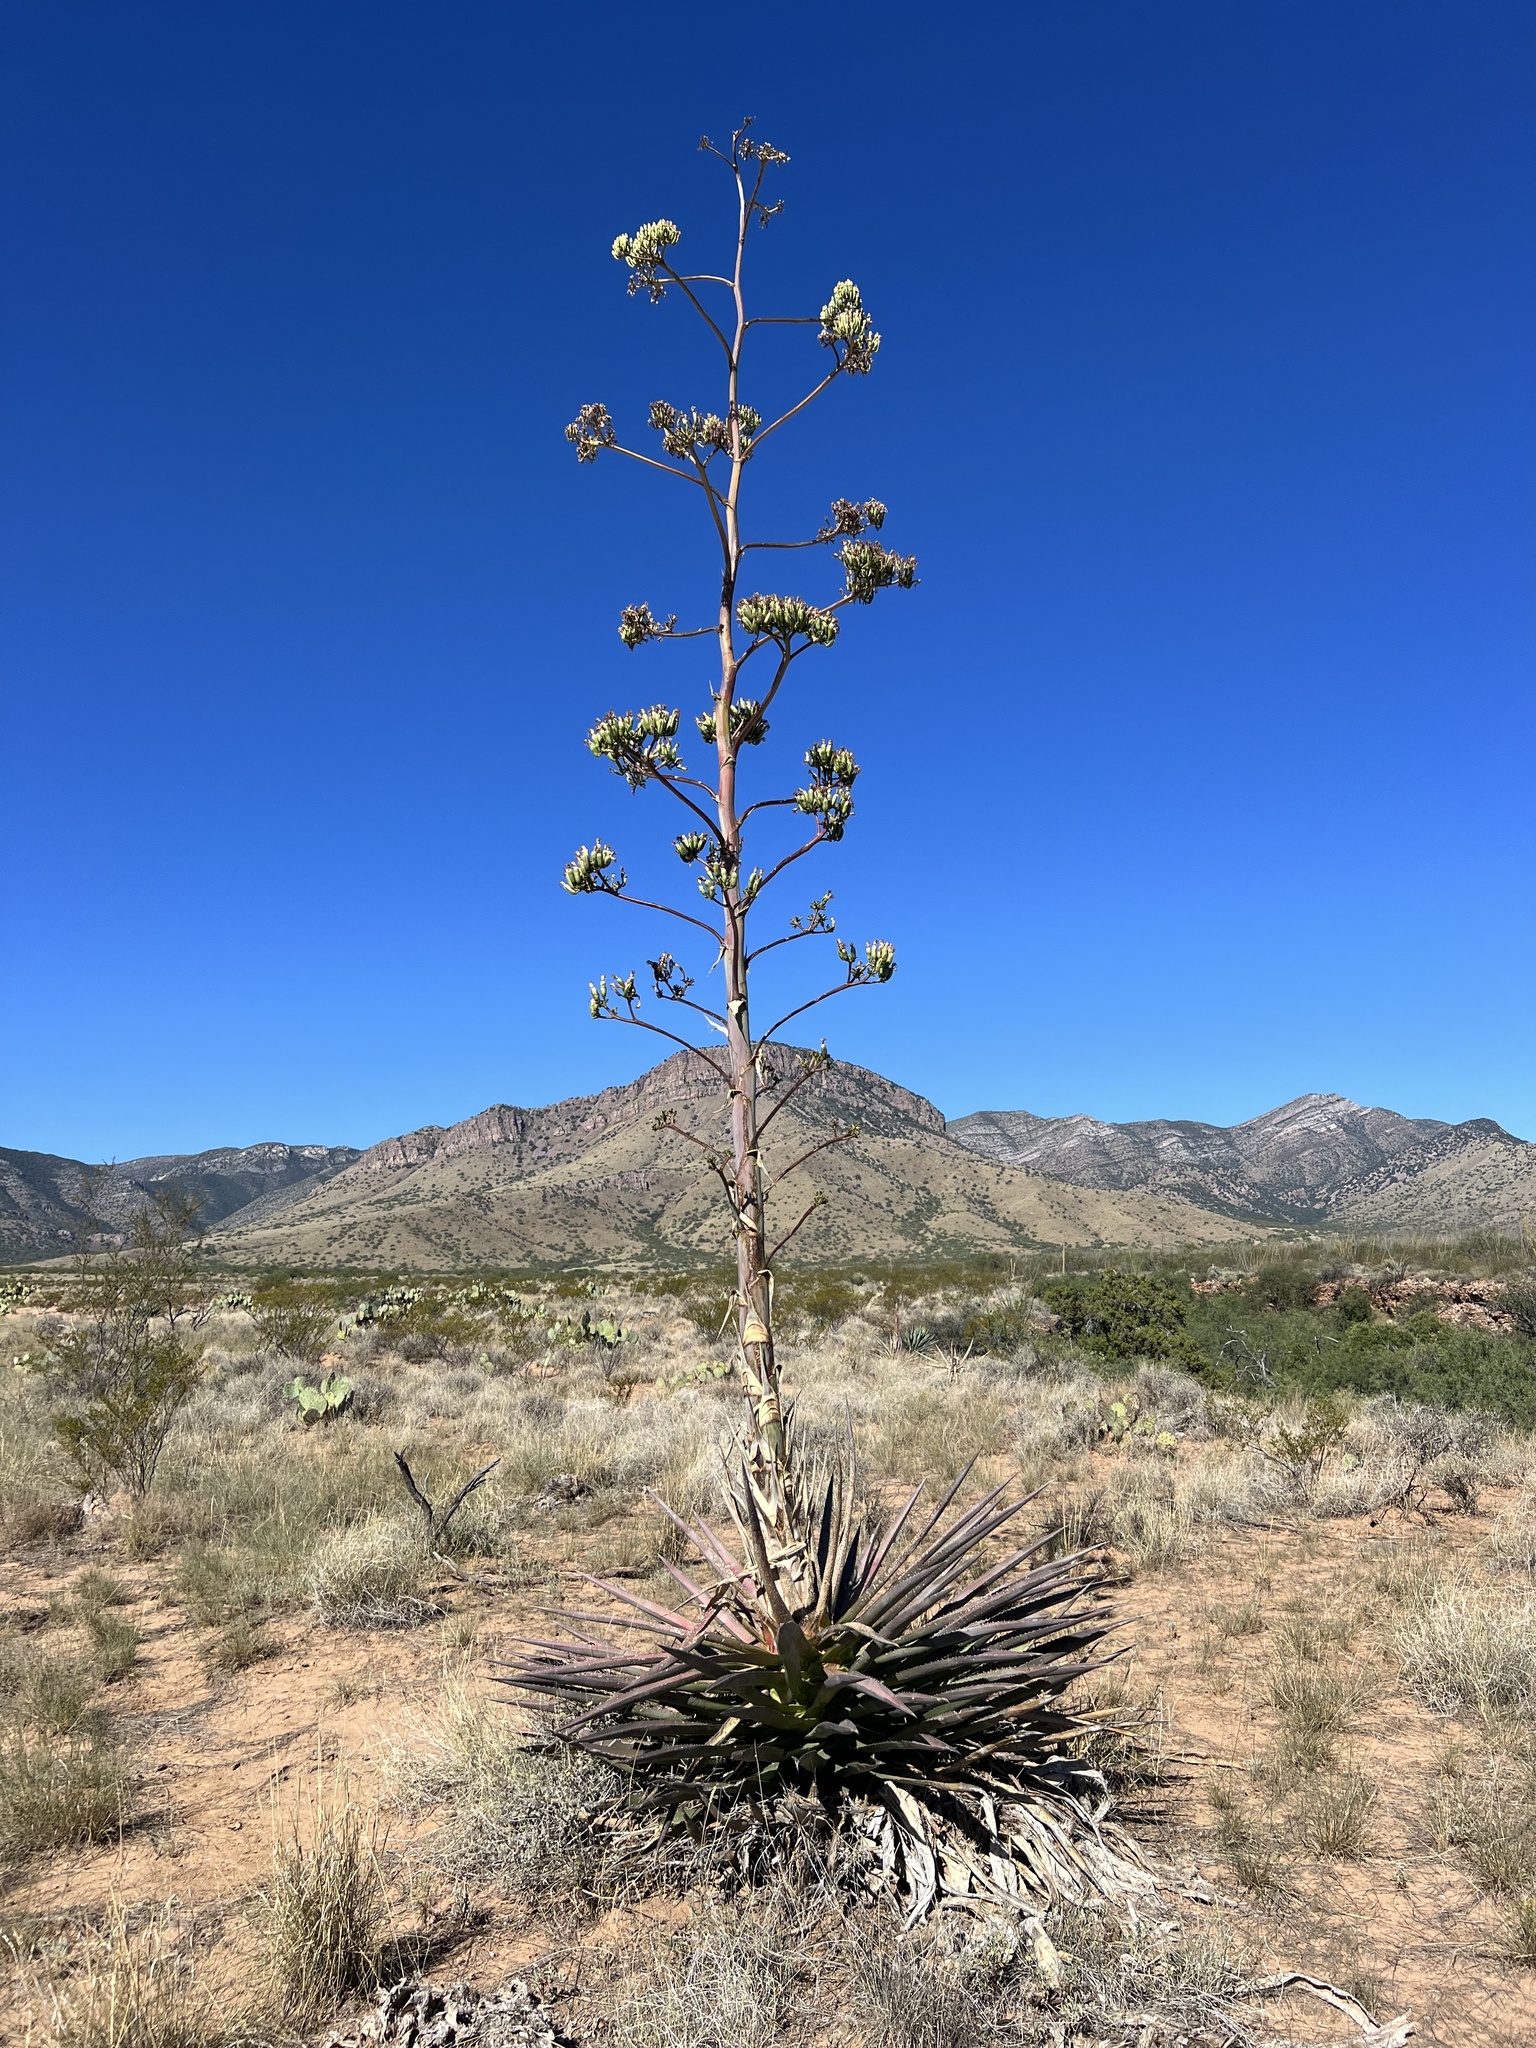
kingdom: Plantae
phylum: Tracheophyta
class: Liliopsida
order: Asparagales
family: Asparagaceae
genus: Agave
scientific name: Agave palmeri
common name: Palmer agave
